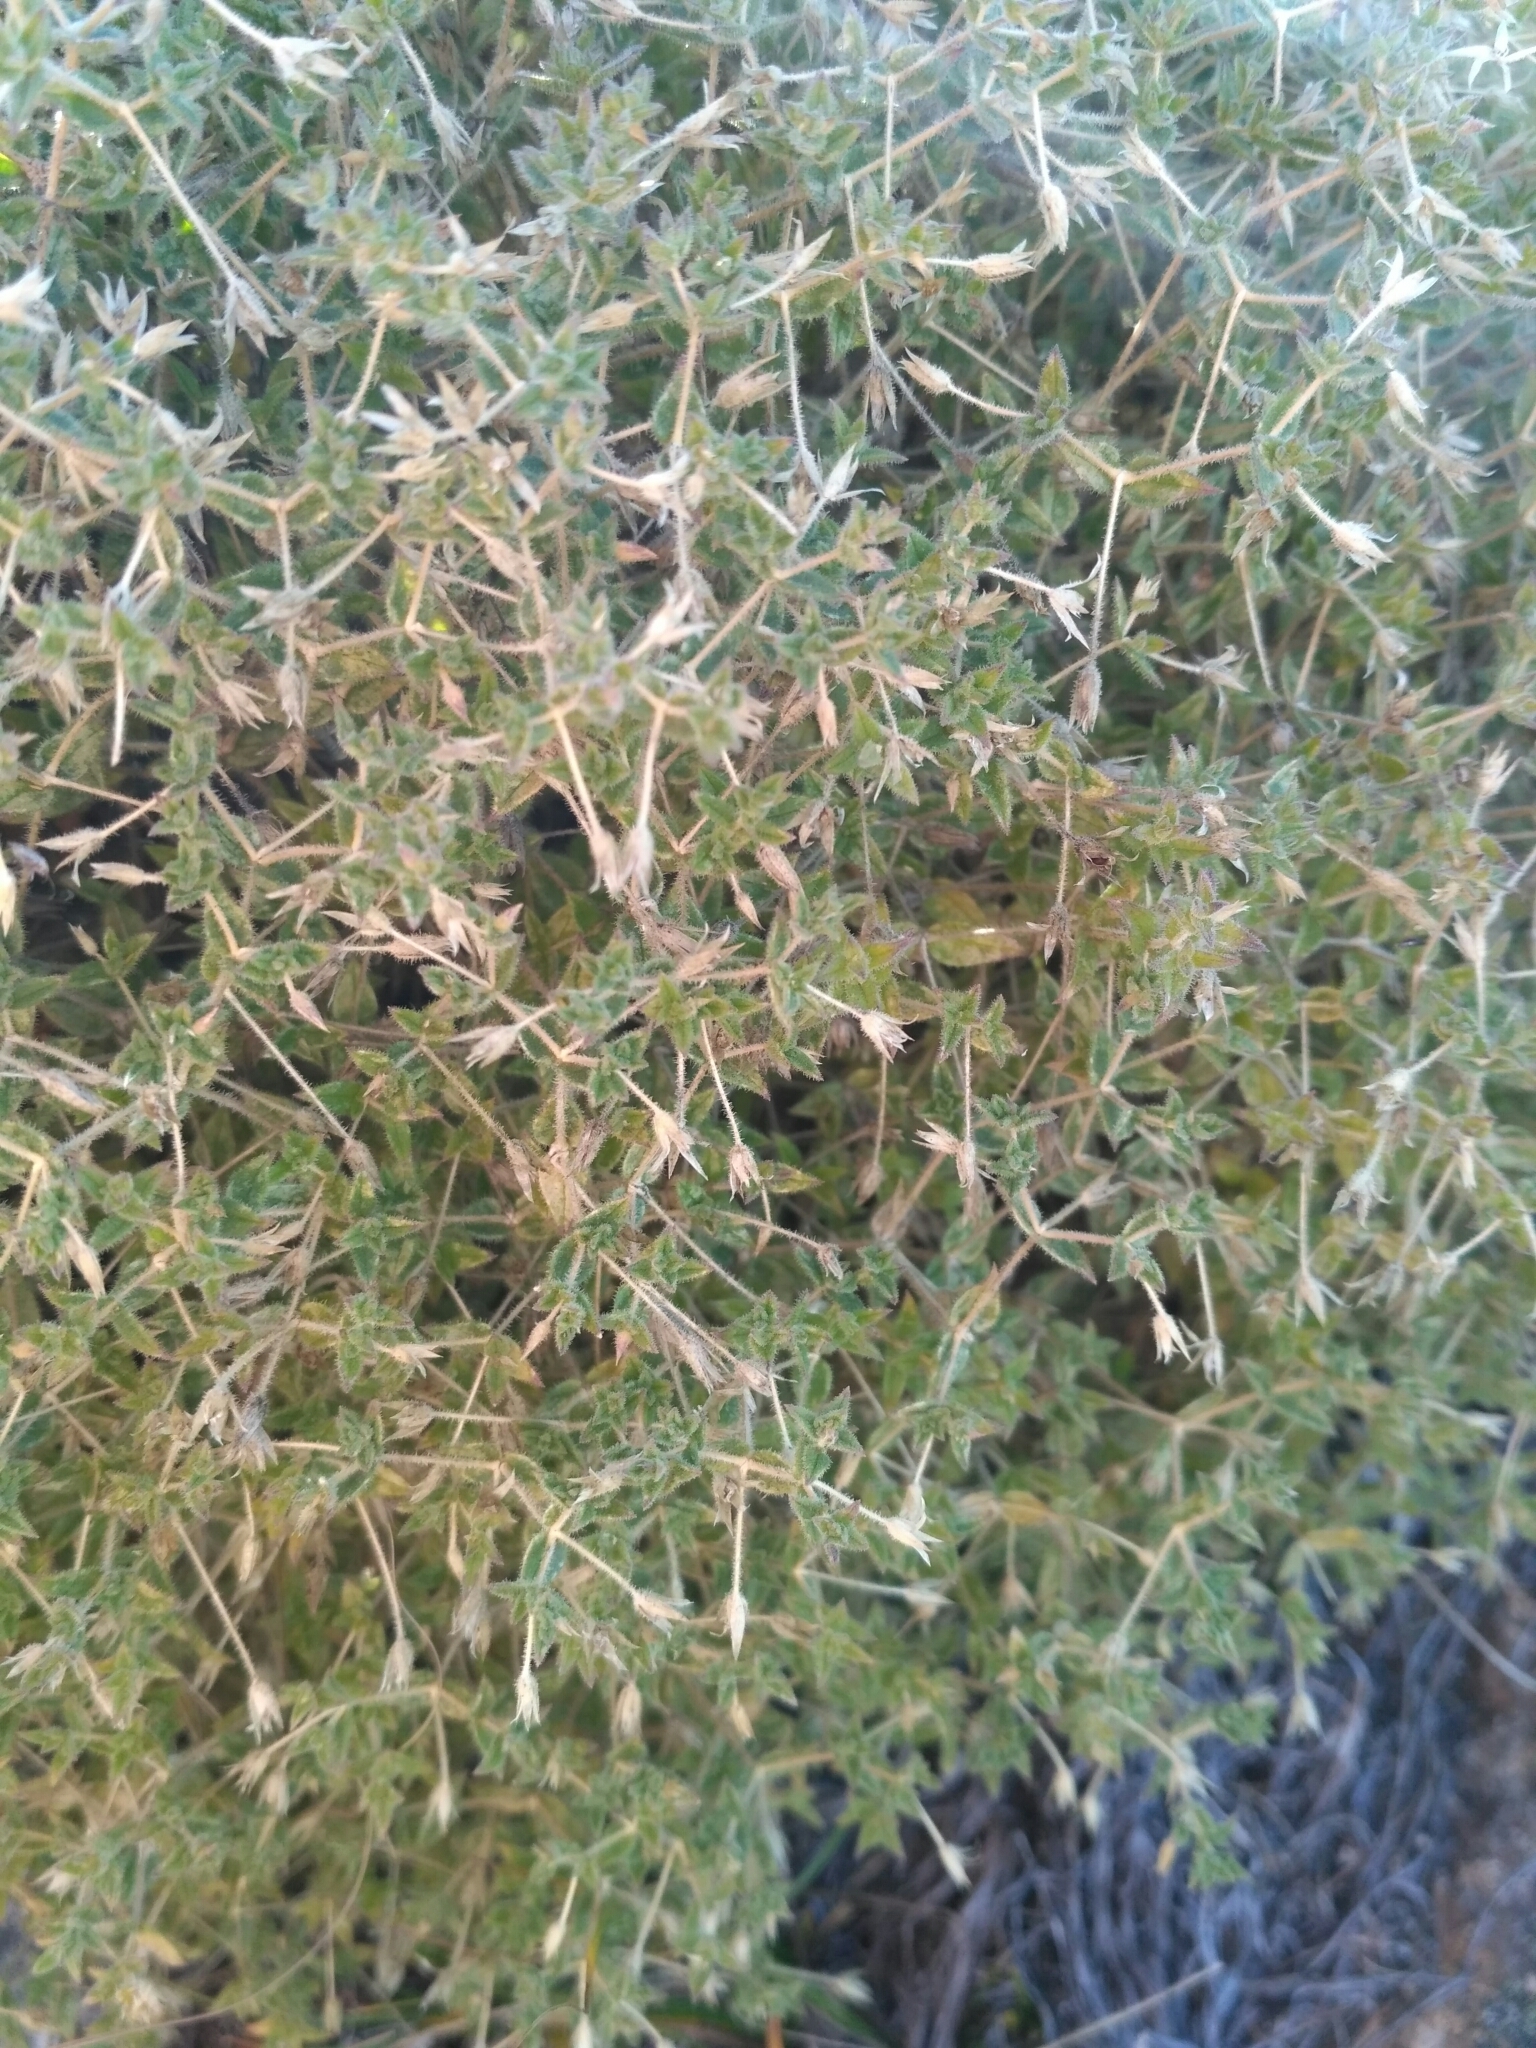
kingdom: Plantae
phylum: Tracheophyta
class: Magnoliopsida
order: Caryophyllales
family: Caryophyllaceae
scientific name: Caryophyllaceae
